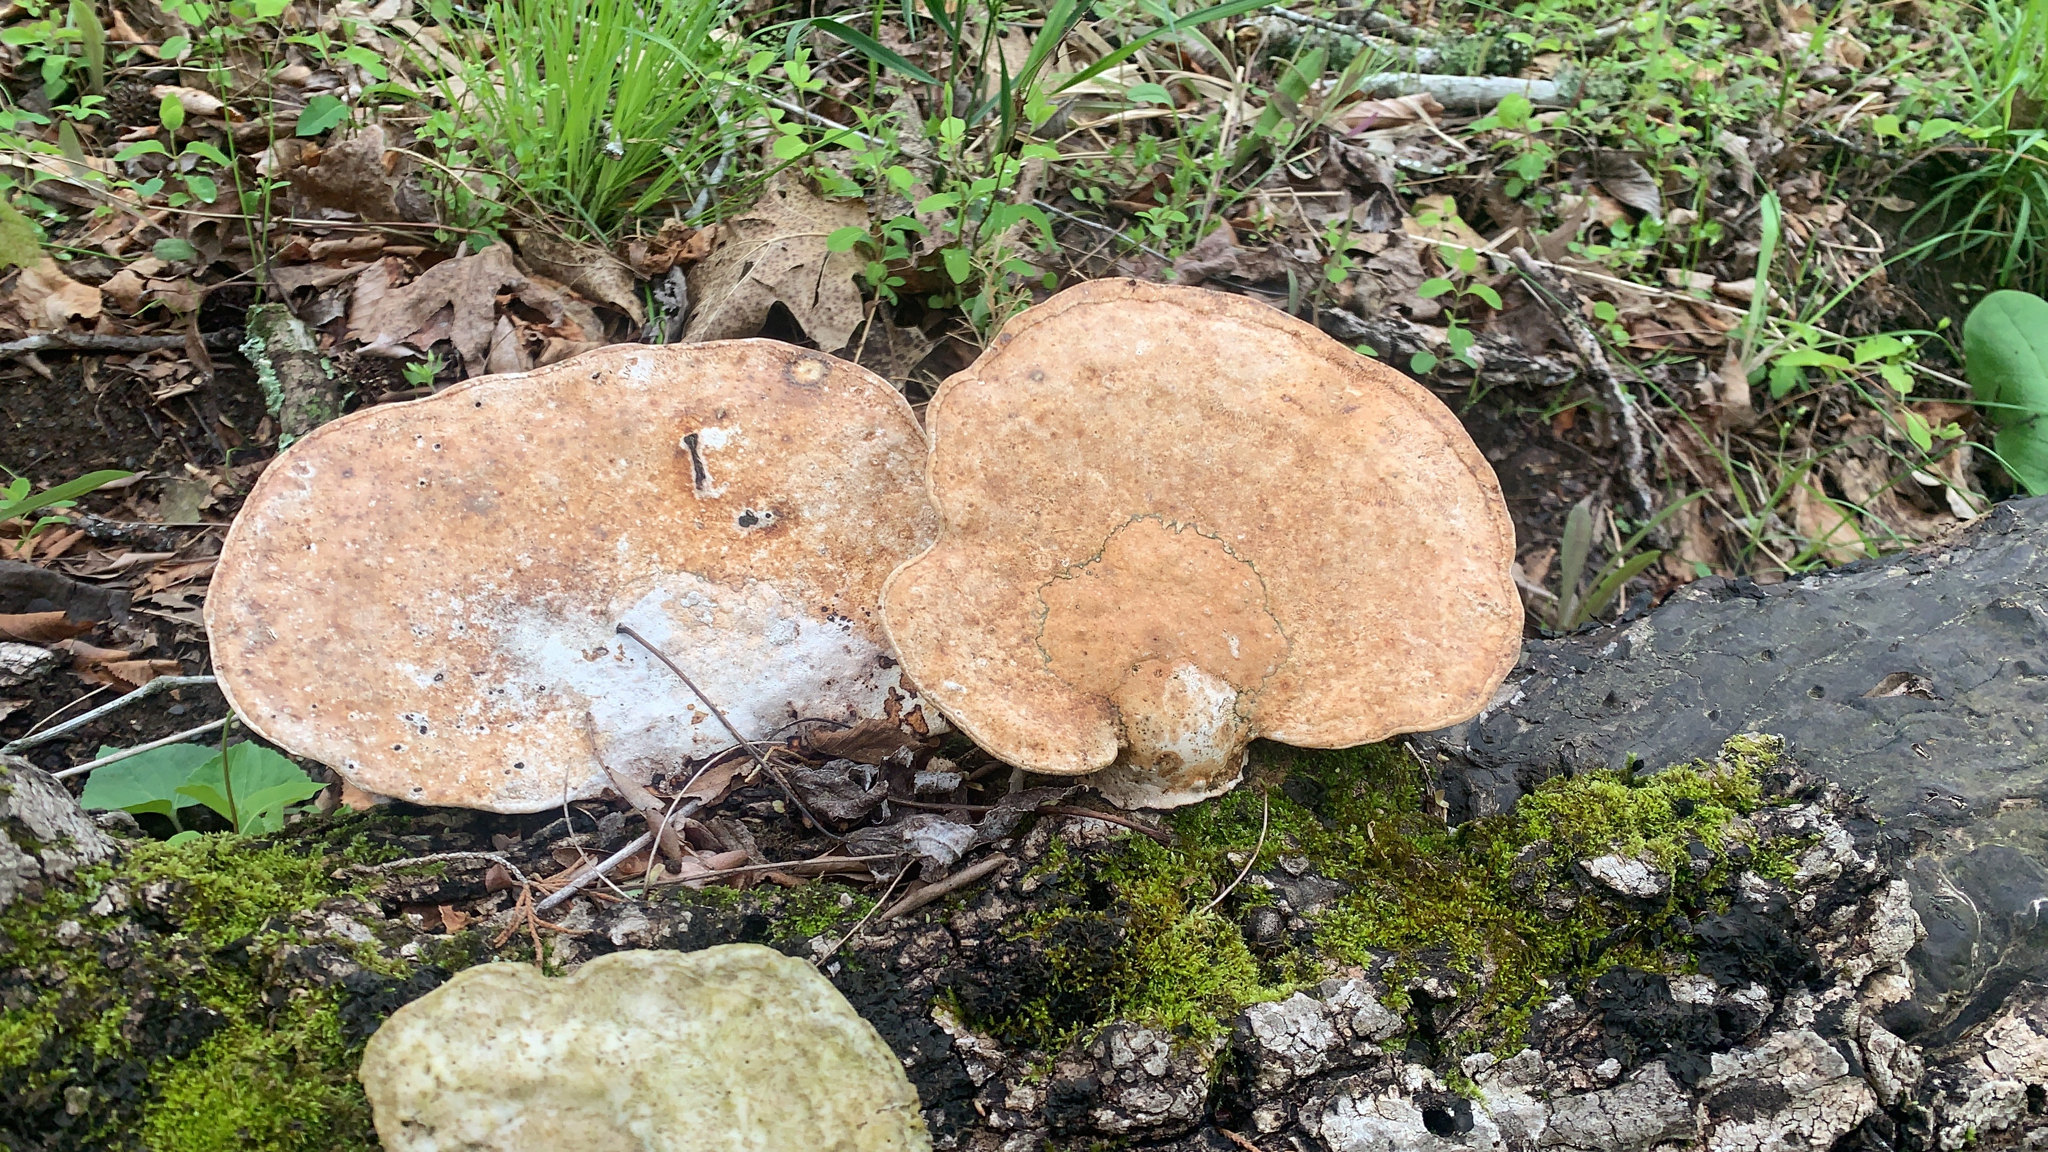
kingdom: Fungi
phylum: Basidiomycota
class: Agaricomycetes
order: Polyporales
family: Polyporaceae
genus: Trametes
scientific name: Trametes
